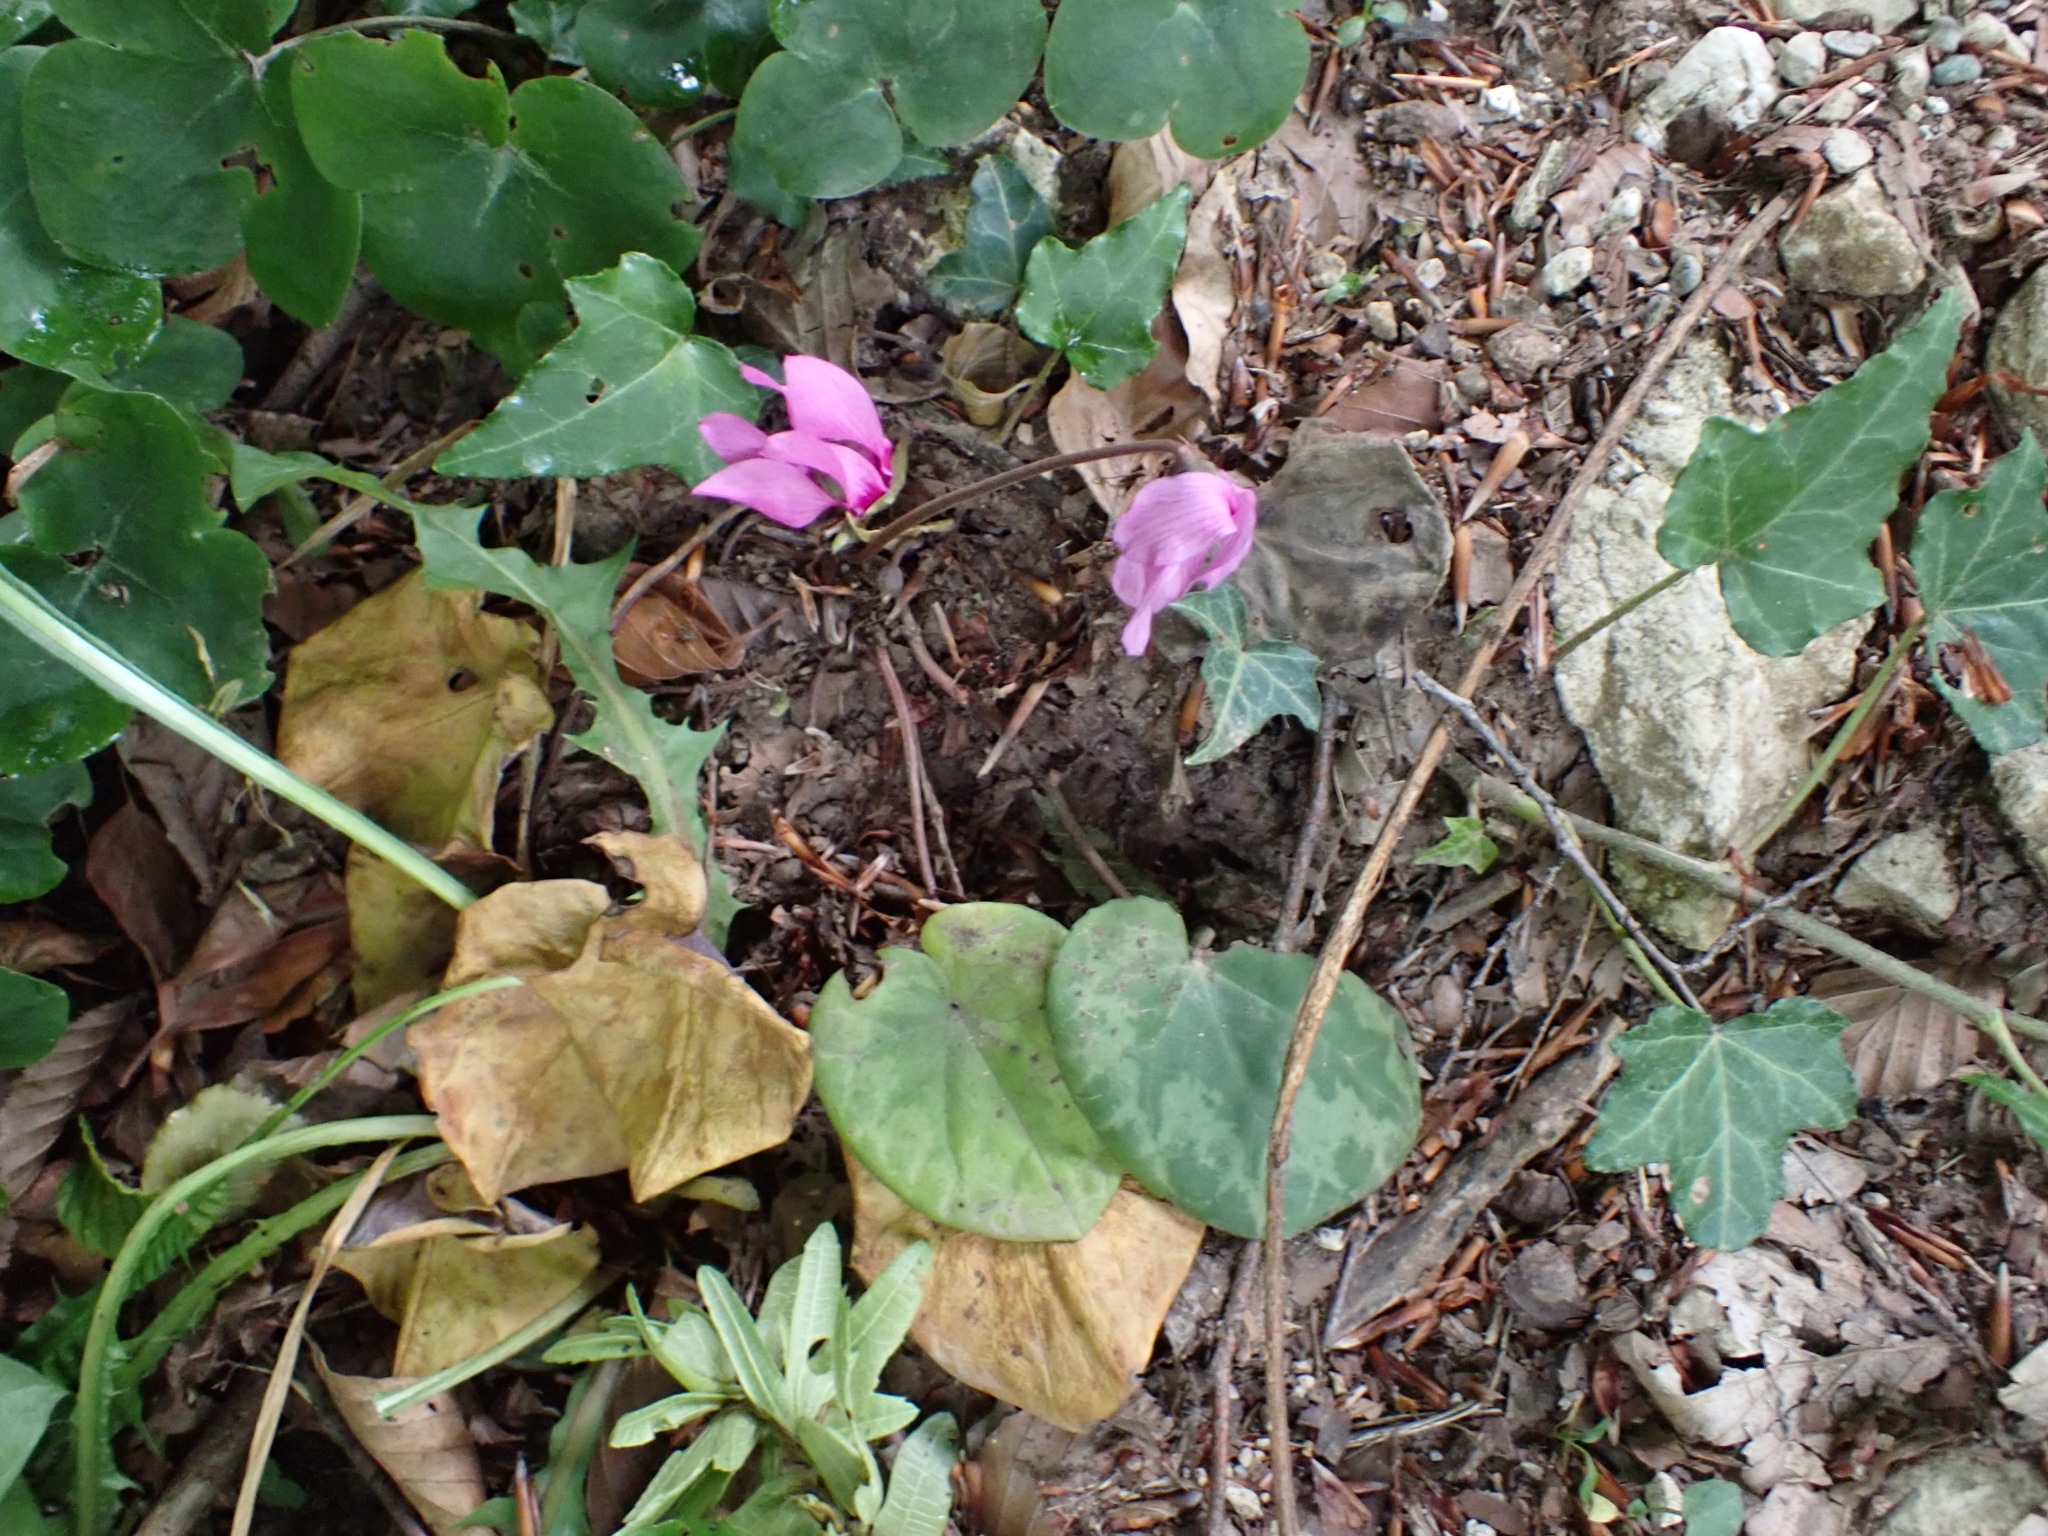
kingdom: Plantae
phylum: Tracheophyta
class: Magnoliopsida
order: Ericales
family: Primulaceae
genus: Cyclamen
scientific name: Cyclamen purpurascens
